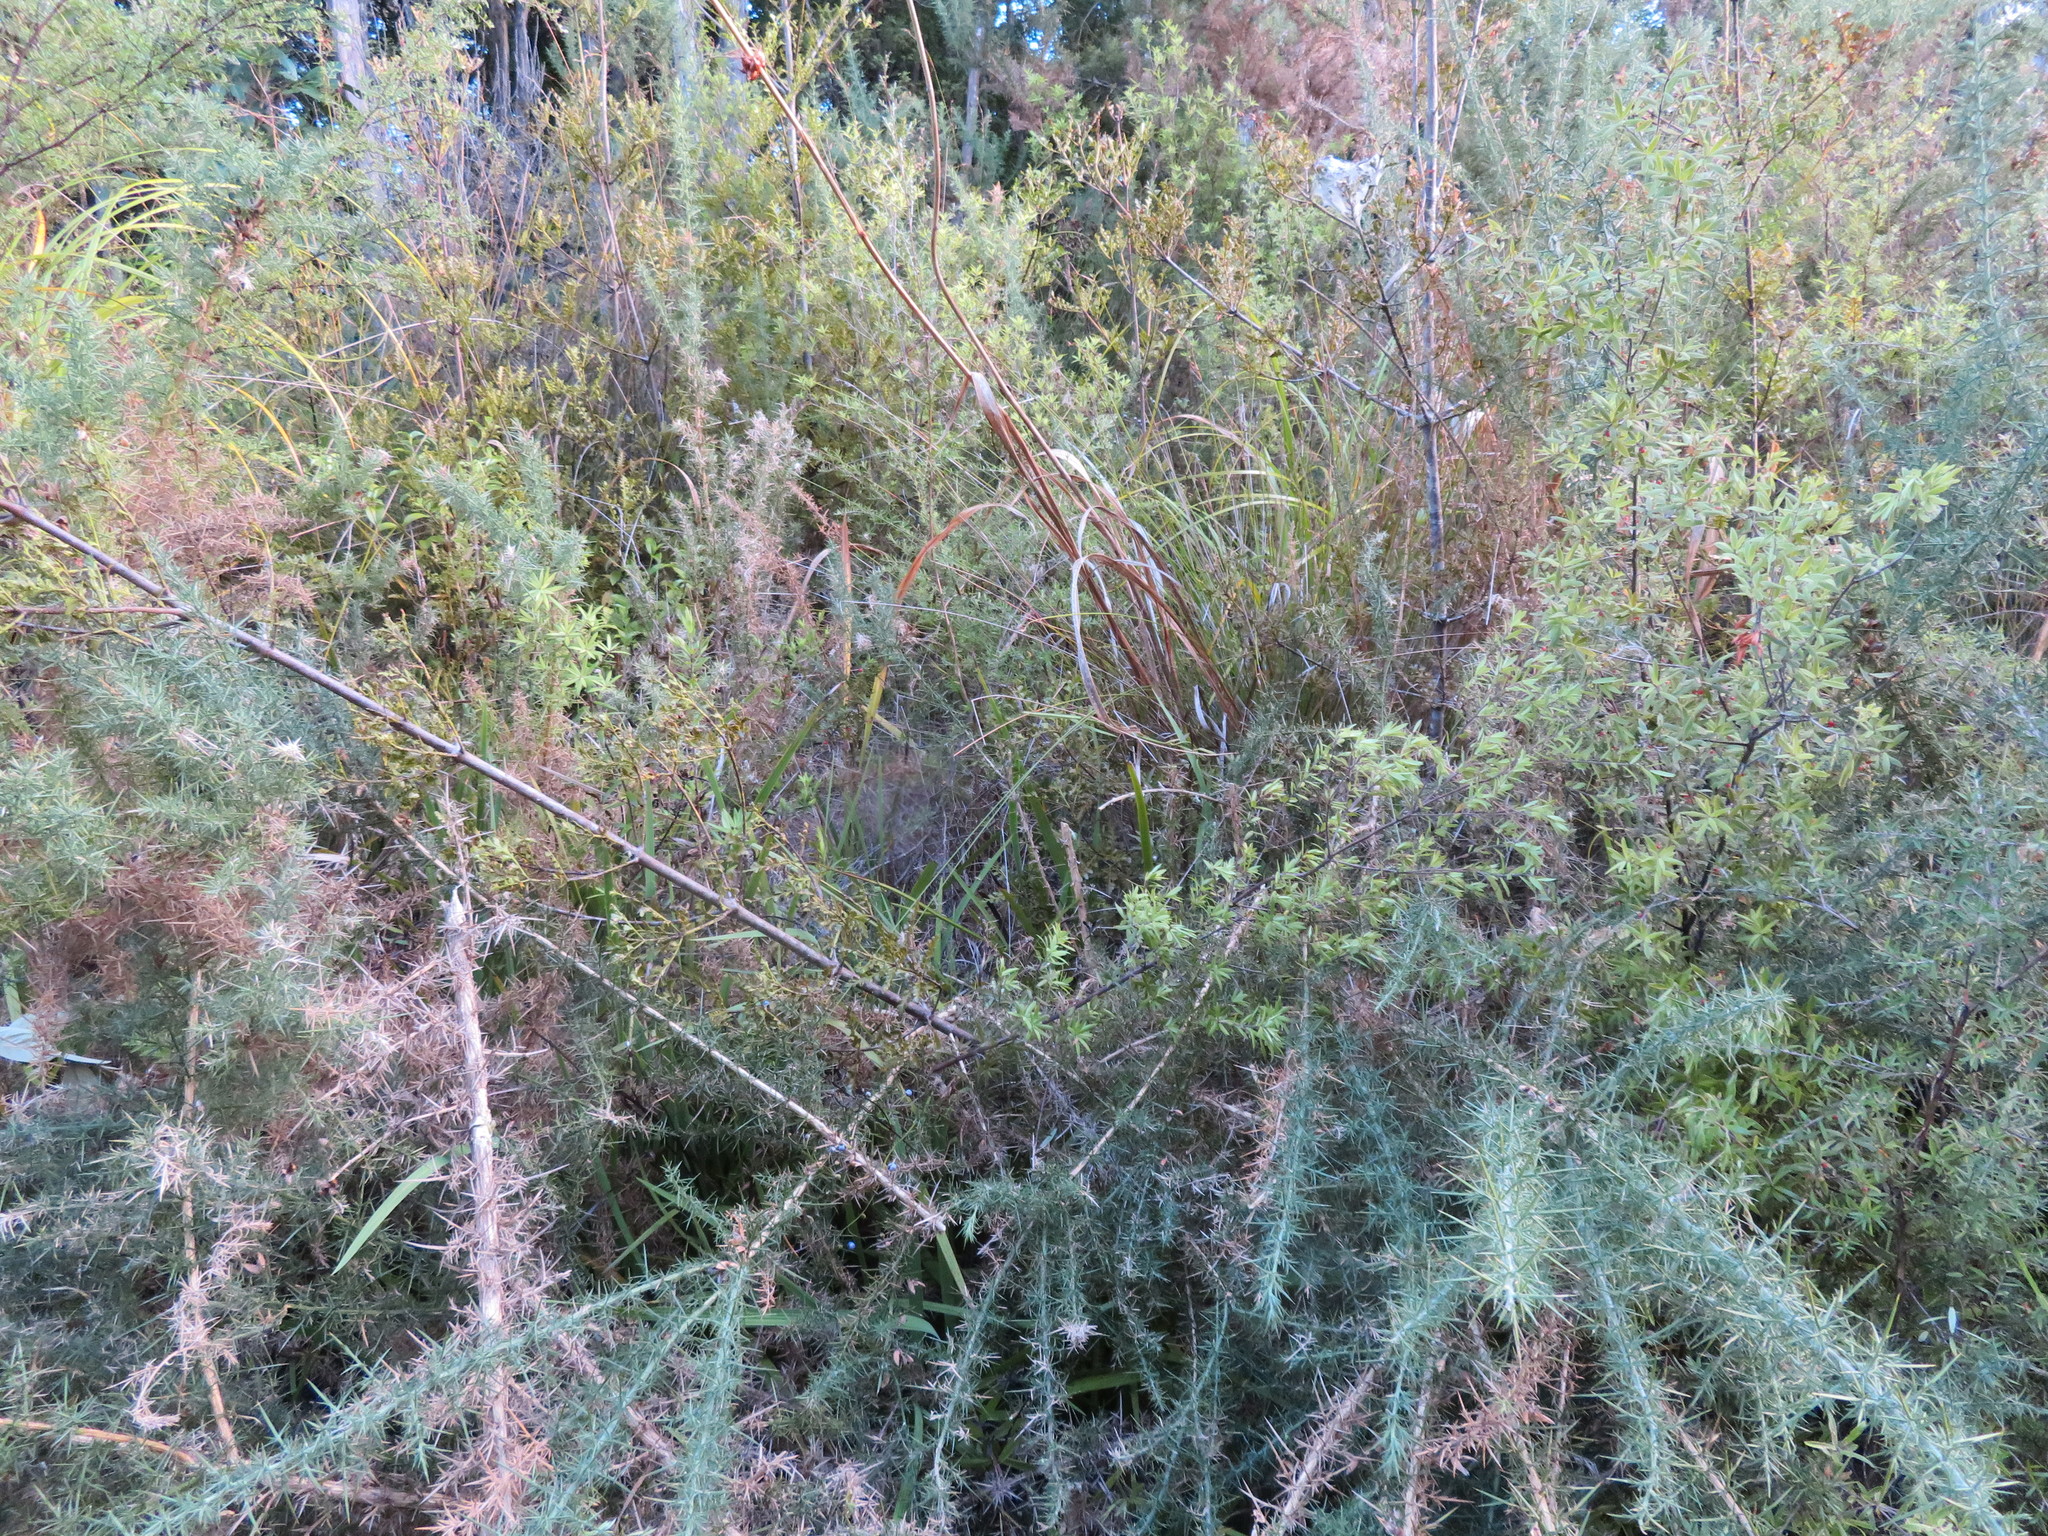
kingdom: Plantae
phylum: Tracheophyta
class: Pinopsida
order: Pinales
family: Phyllocladaceae
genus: Phyllocladus
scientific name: Phyllocladus trichomanoides
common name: Celery pine
